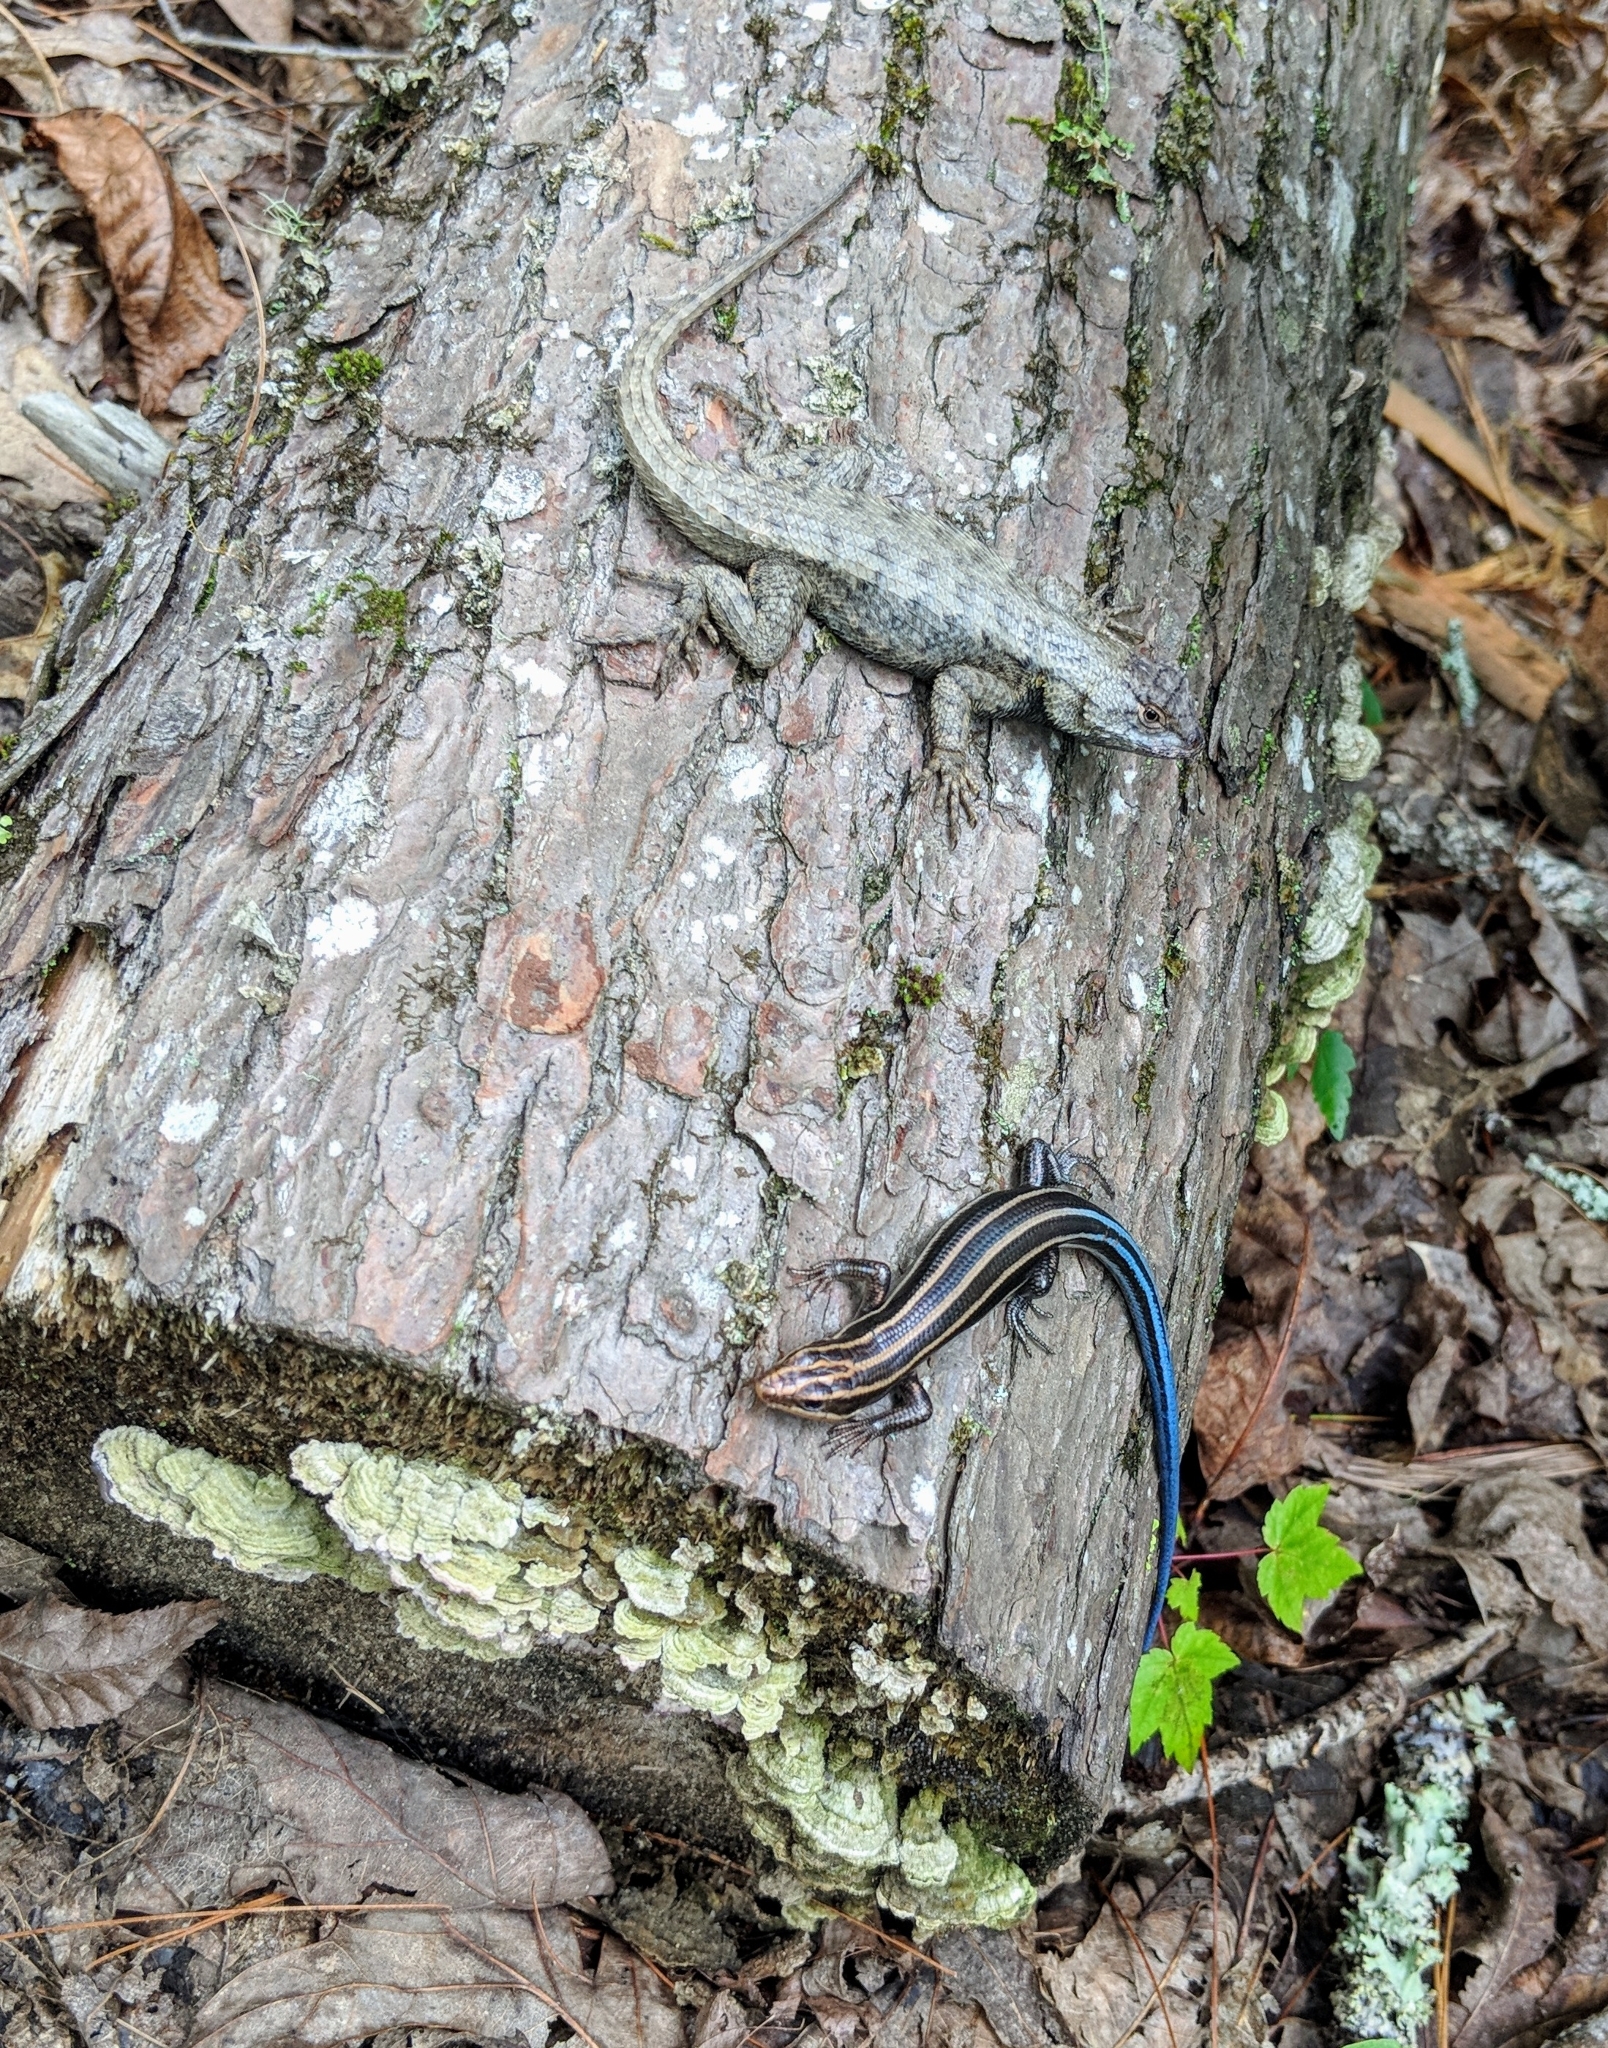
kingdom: Animalia
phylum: Chordata
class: Squamata
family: Phrynosomatidae
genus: Sceloporus
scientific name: Sceloporus undulatus
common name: Eastern fence lizard
